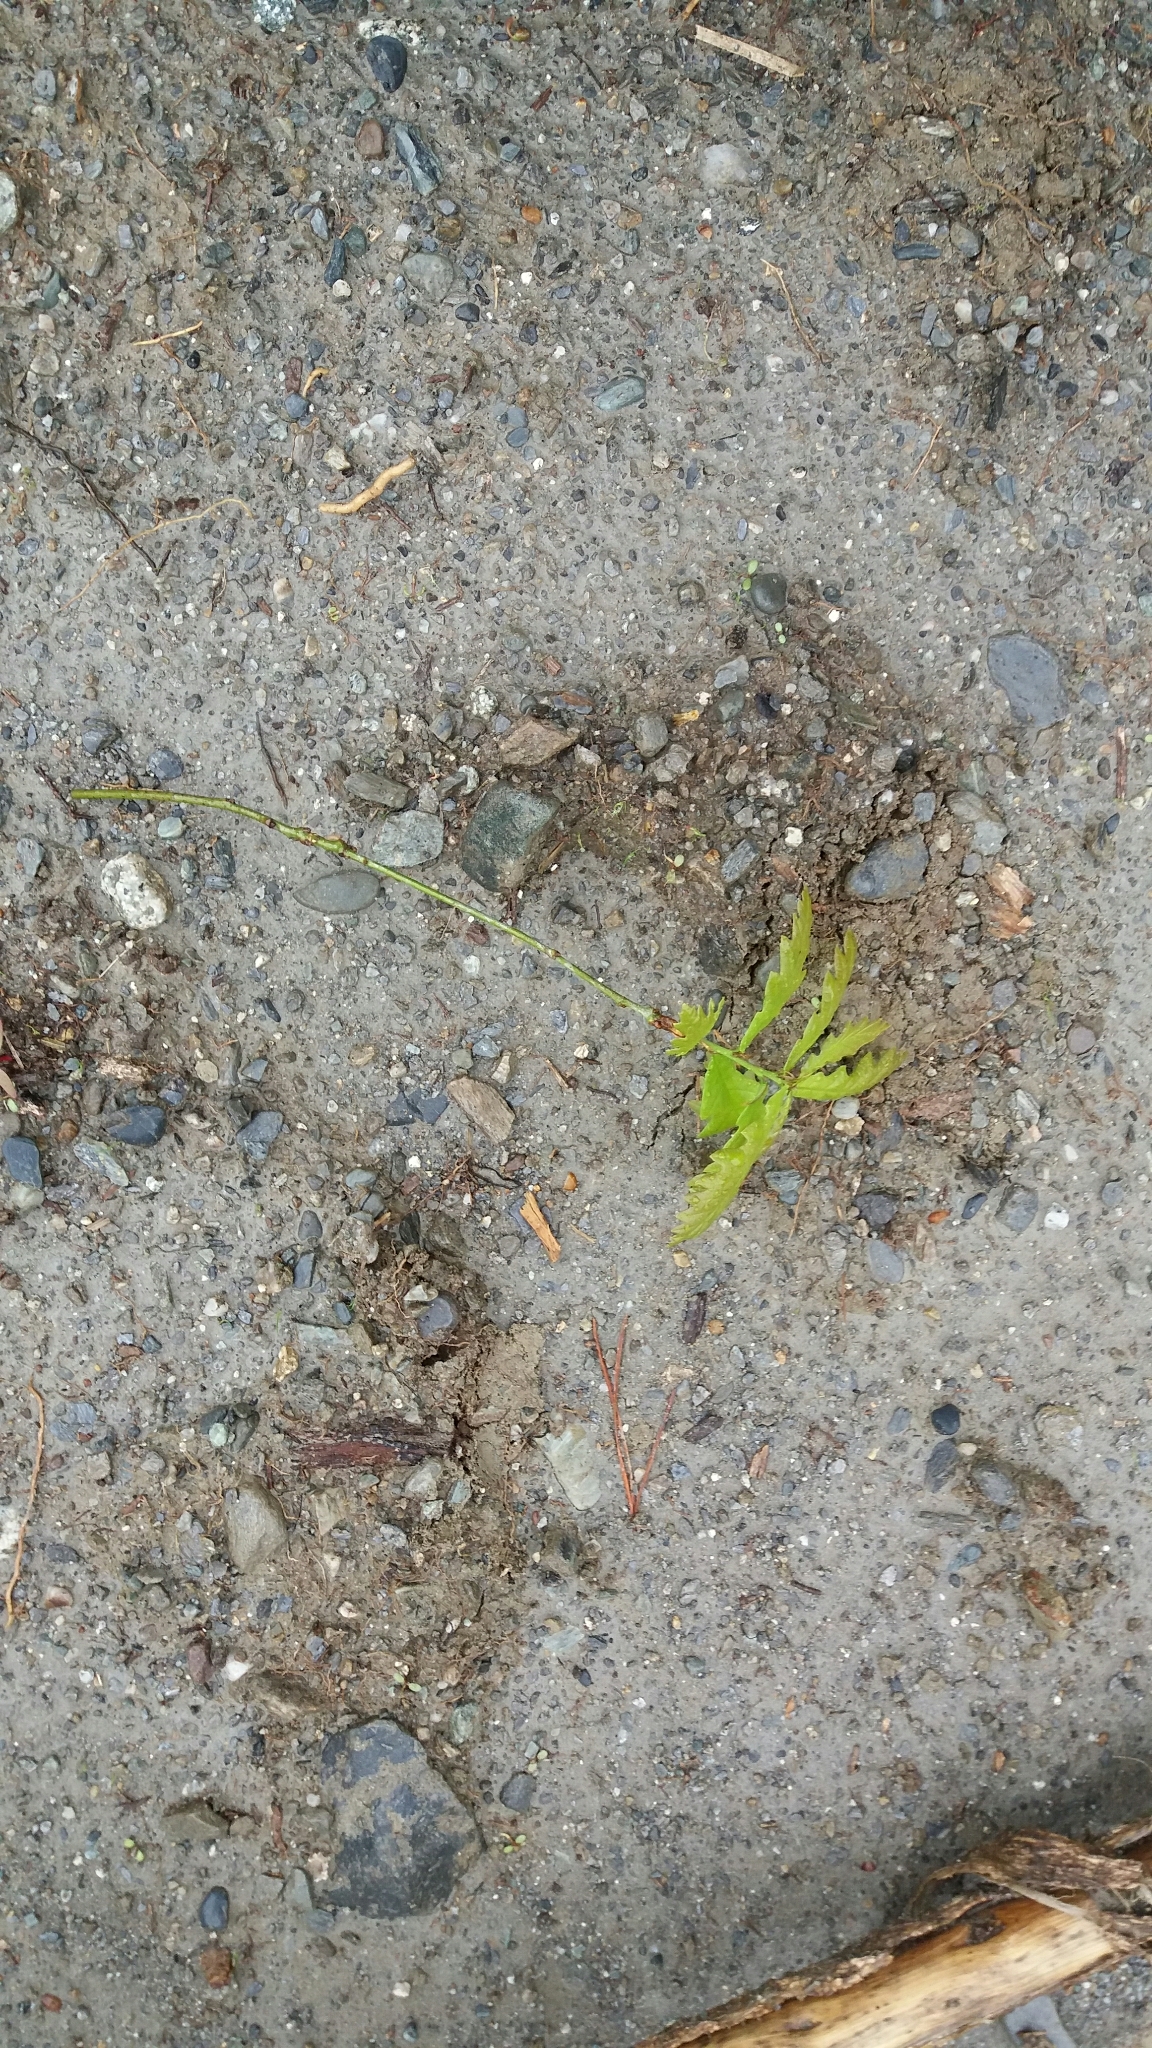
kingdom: Plantae
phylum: Tracheophyta
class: Magnoliopsida
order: Fagales
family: Fagaceae
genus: Quercus
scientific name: Quercus robur
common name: Pedunculate oak
